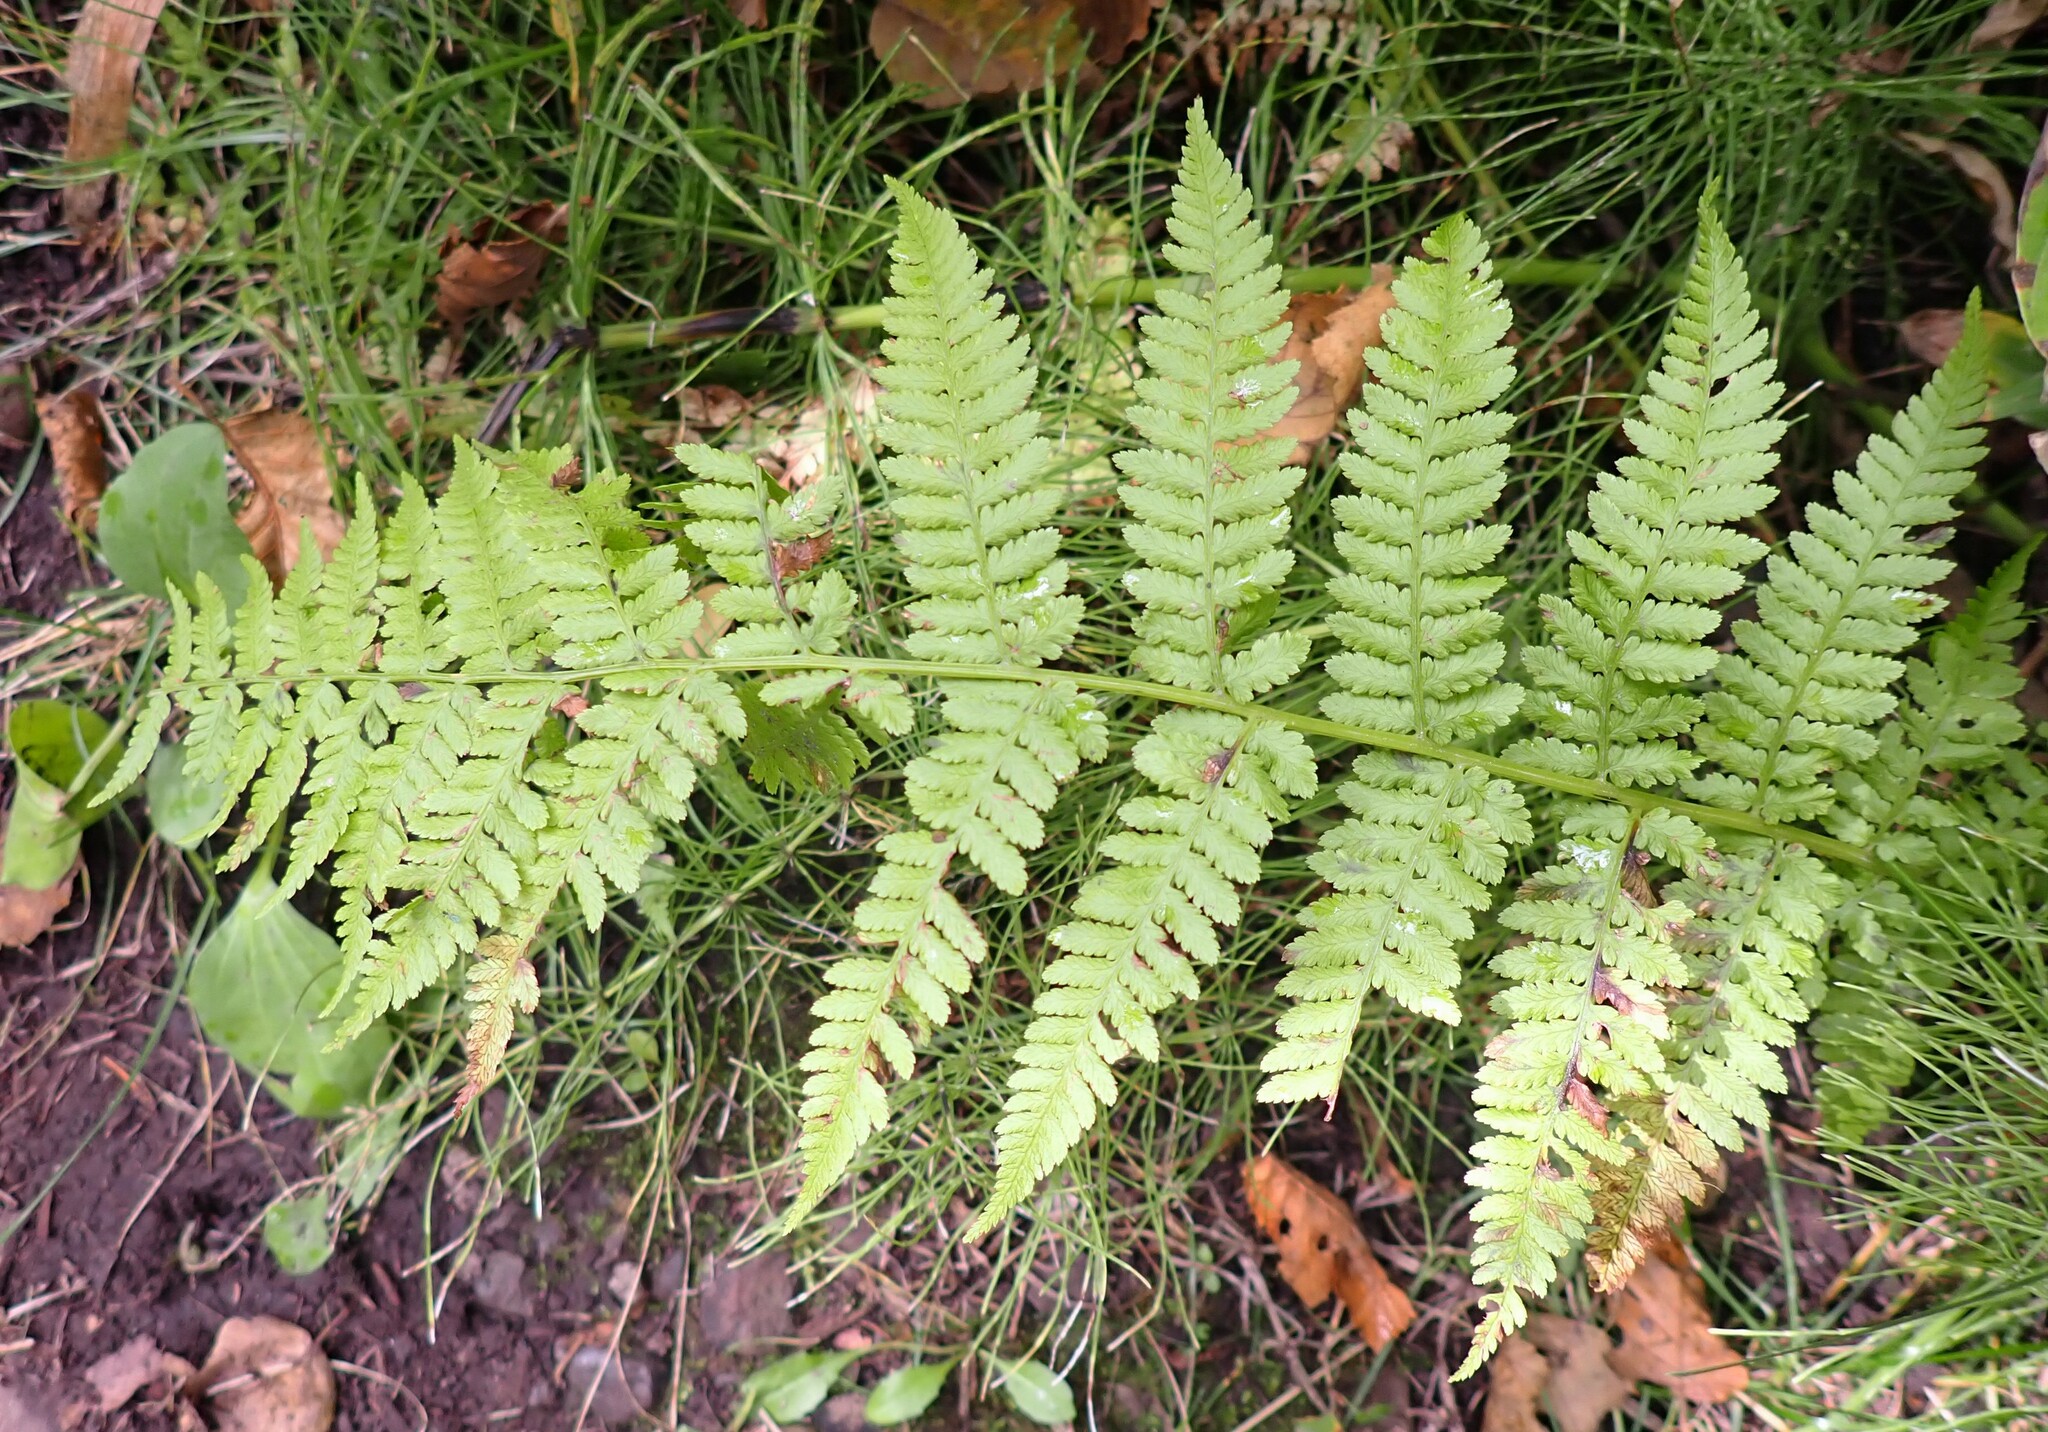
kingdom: Plantae
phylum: Tracheophyta
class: Polypodiopsida
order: Polypodiales
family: Athyriaceae
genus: Athyrium
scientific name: Athyrium filix-femina
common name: Lady fern
